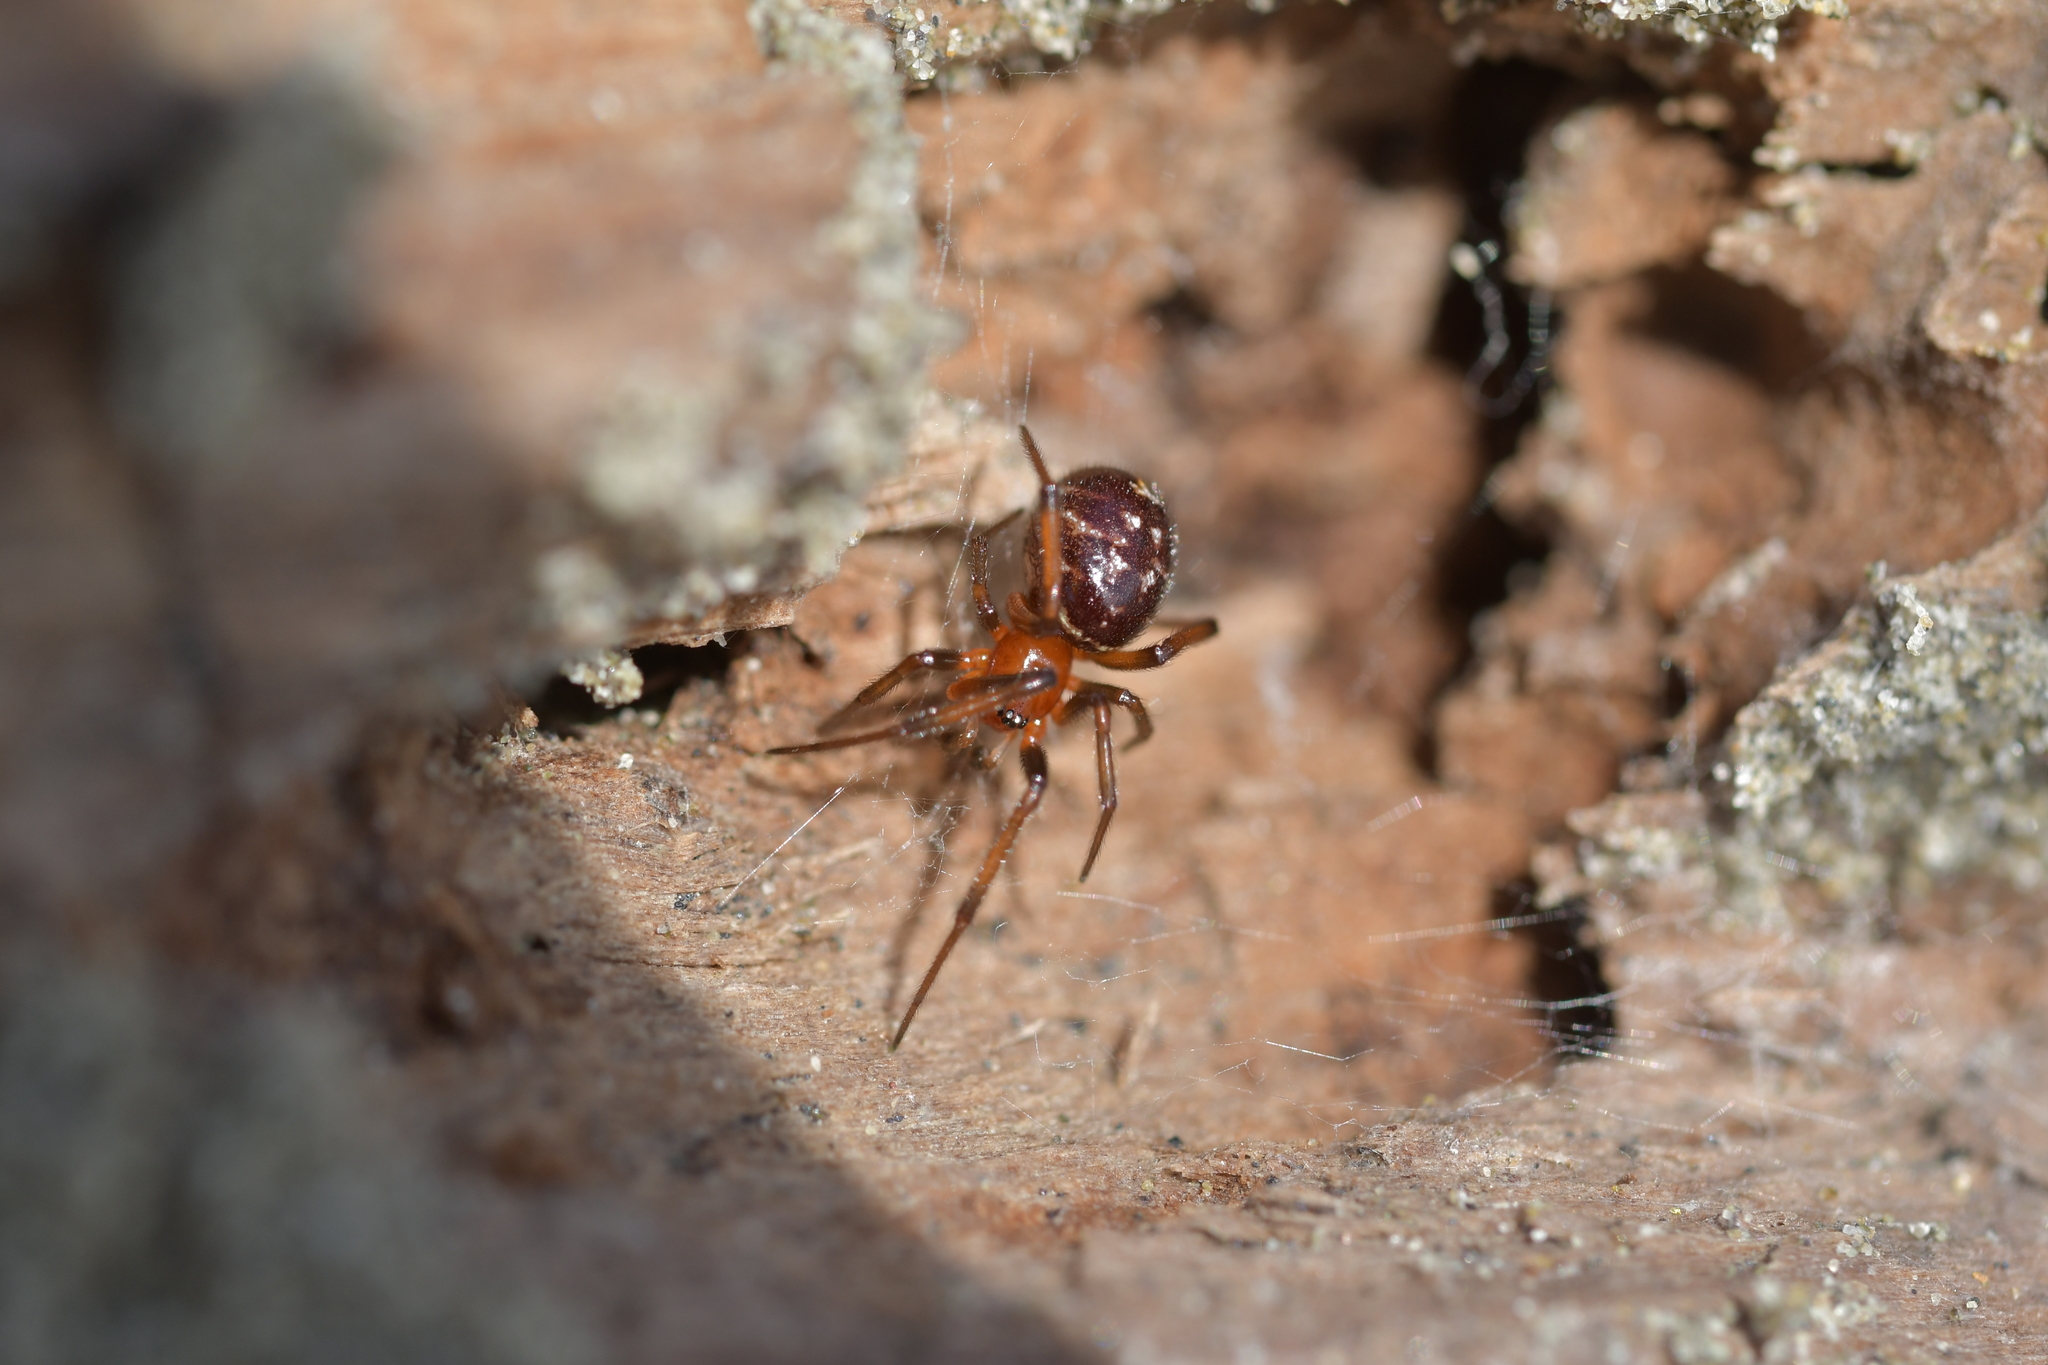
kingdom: Animalia
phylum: Arthropoda
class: Arachnida
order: Araneae
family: Theridiidae
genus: Steatoda
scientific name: Steatoda capensis
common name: Cobweb weaver
